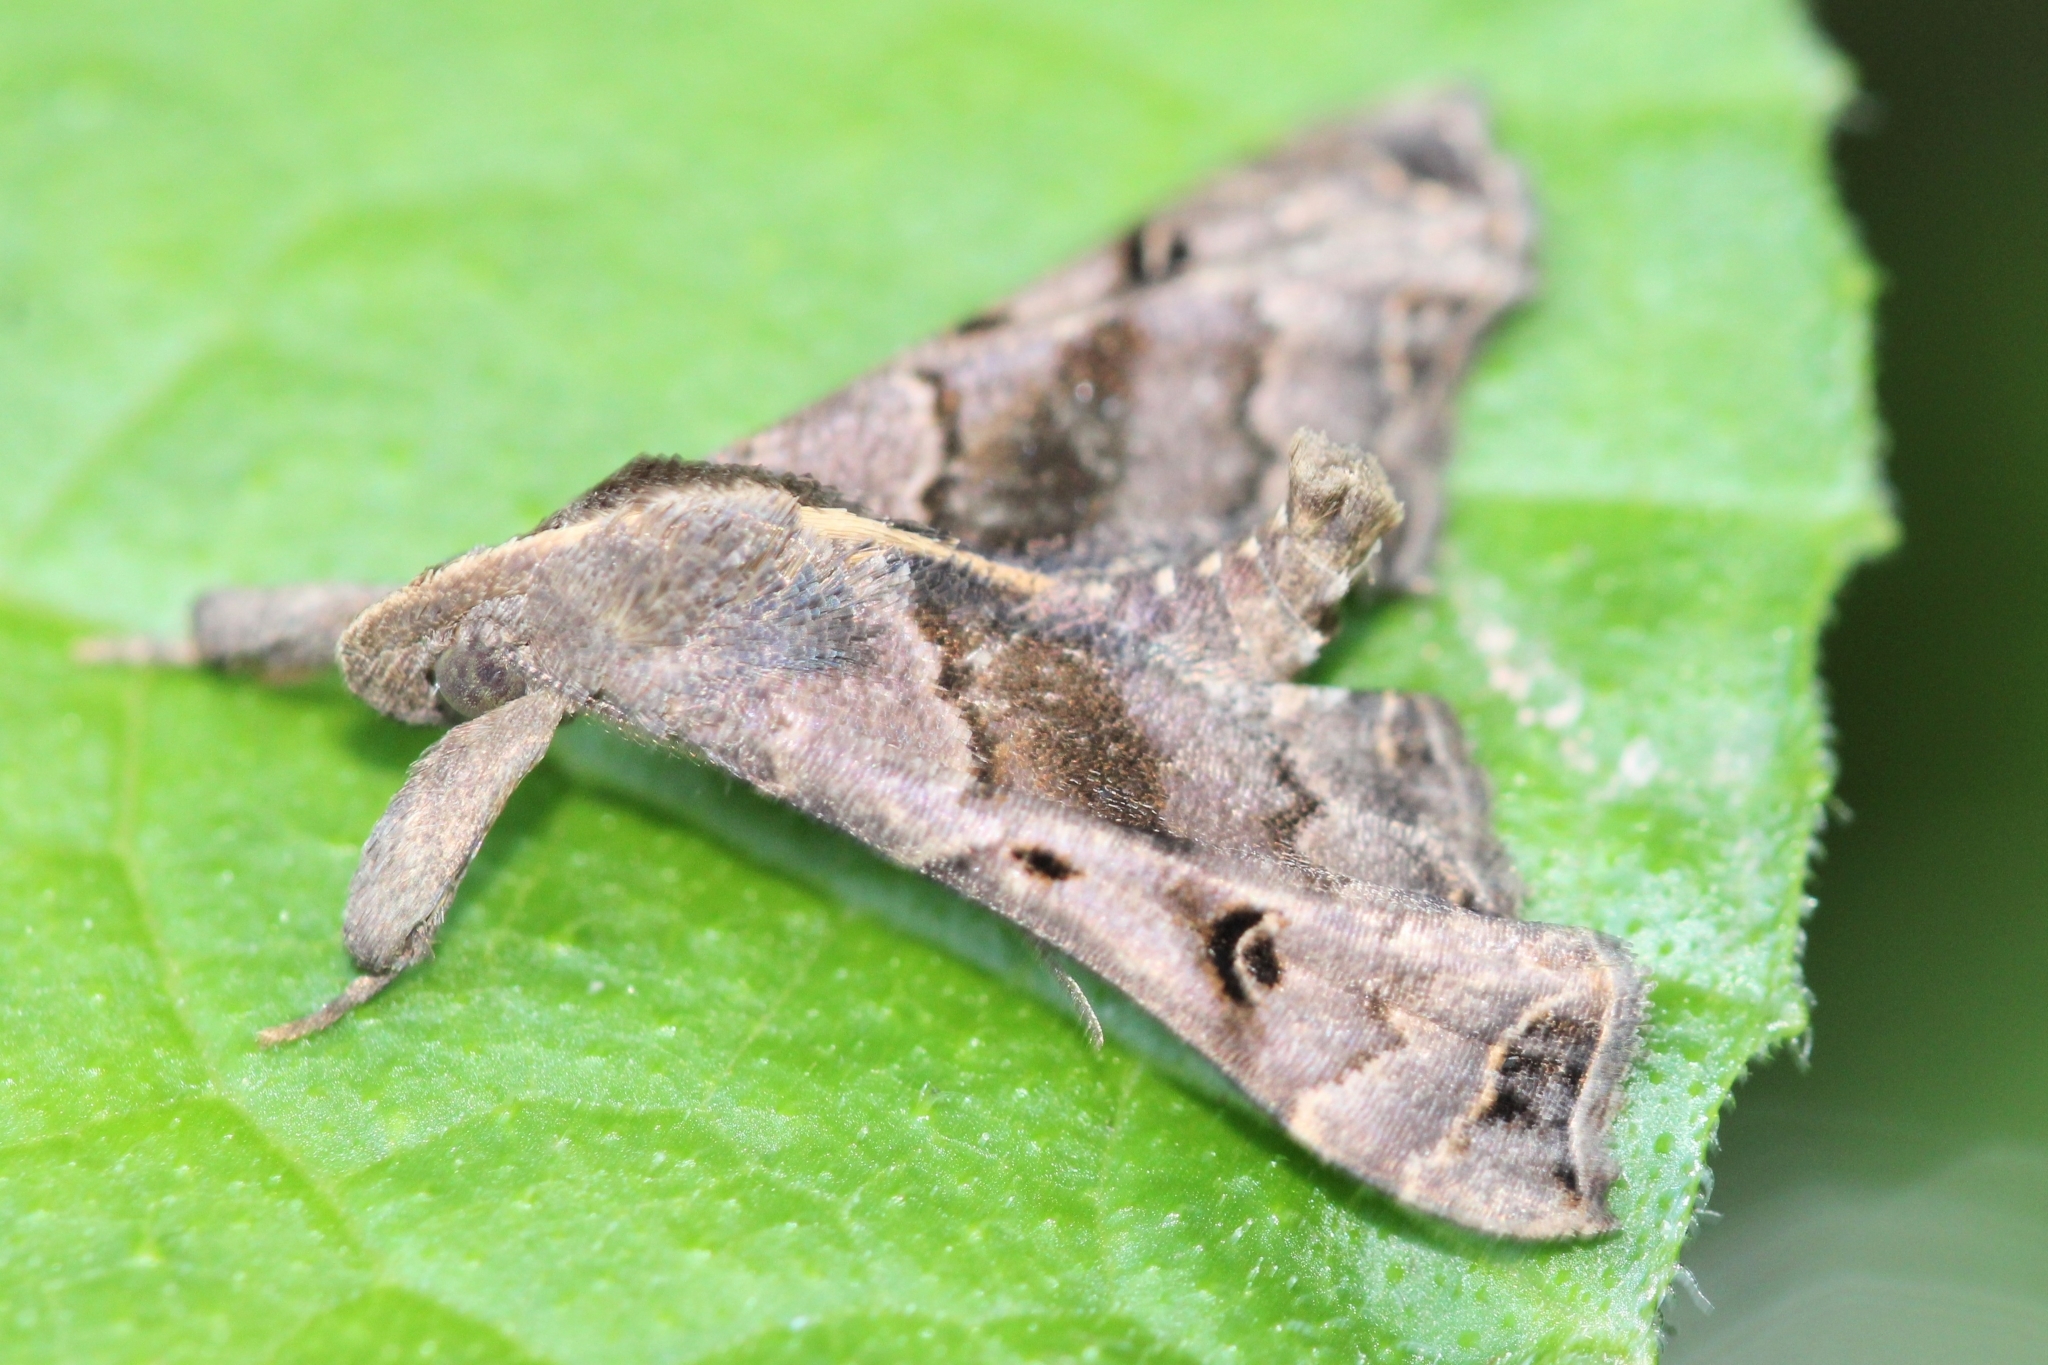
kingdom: Animalia
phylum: Arthropoda
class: Insecta
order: Lepidoptera
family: Erebidae
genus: Palthis
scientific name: Palthis asopialis
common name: Faint-spotted palthis moth
